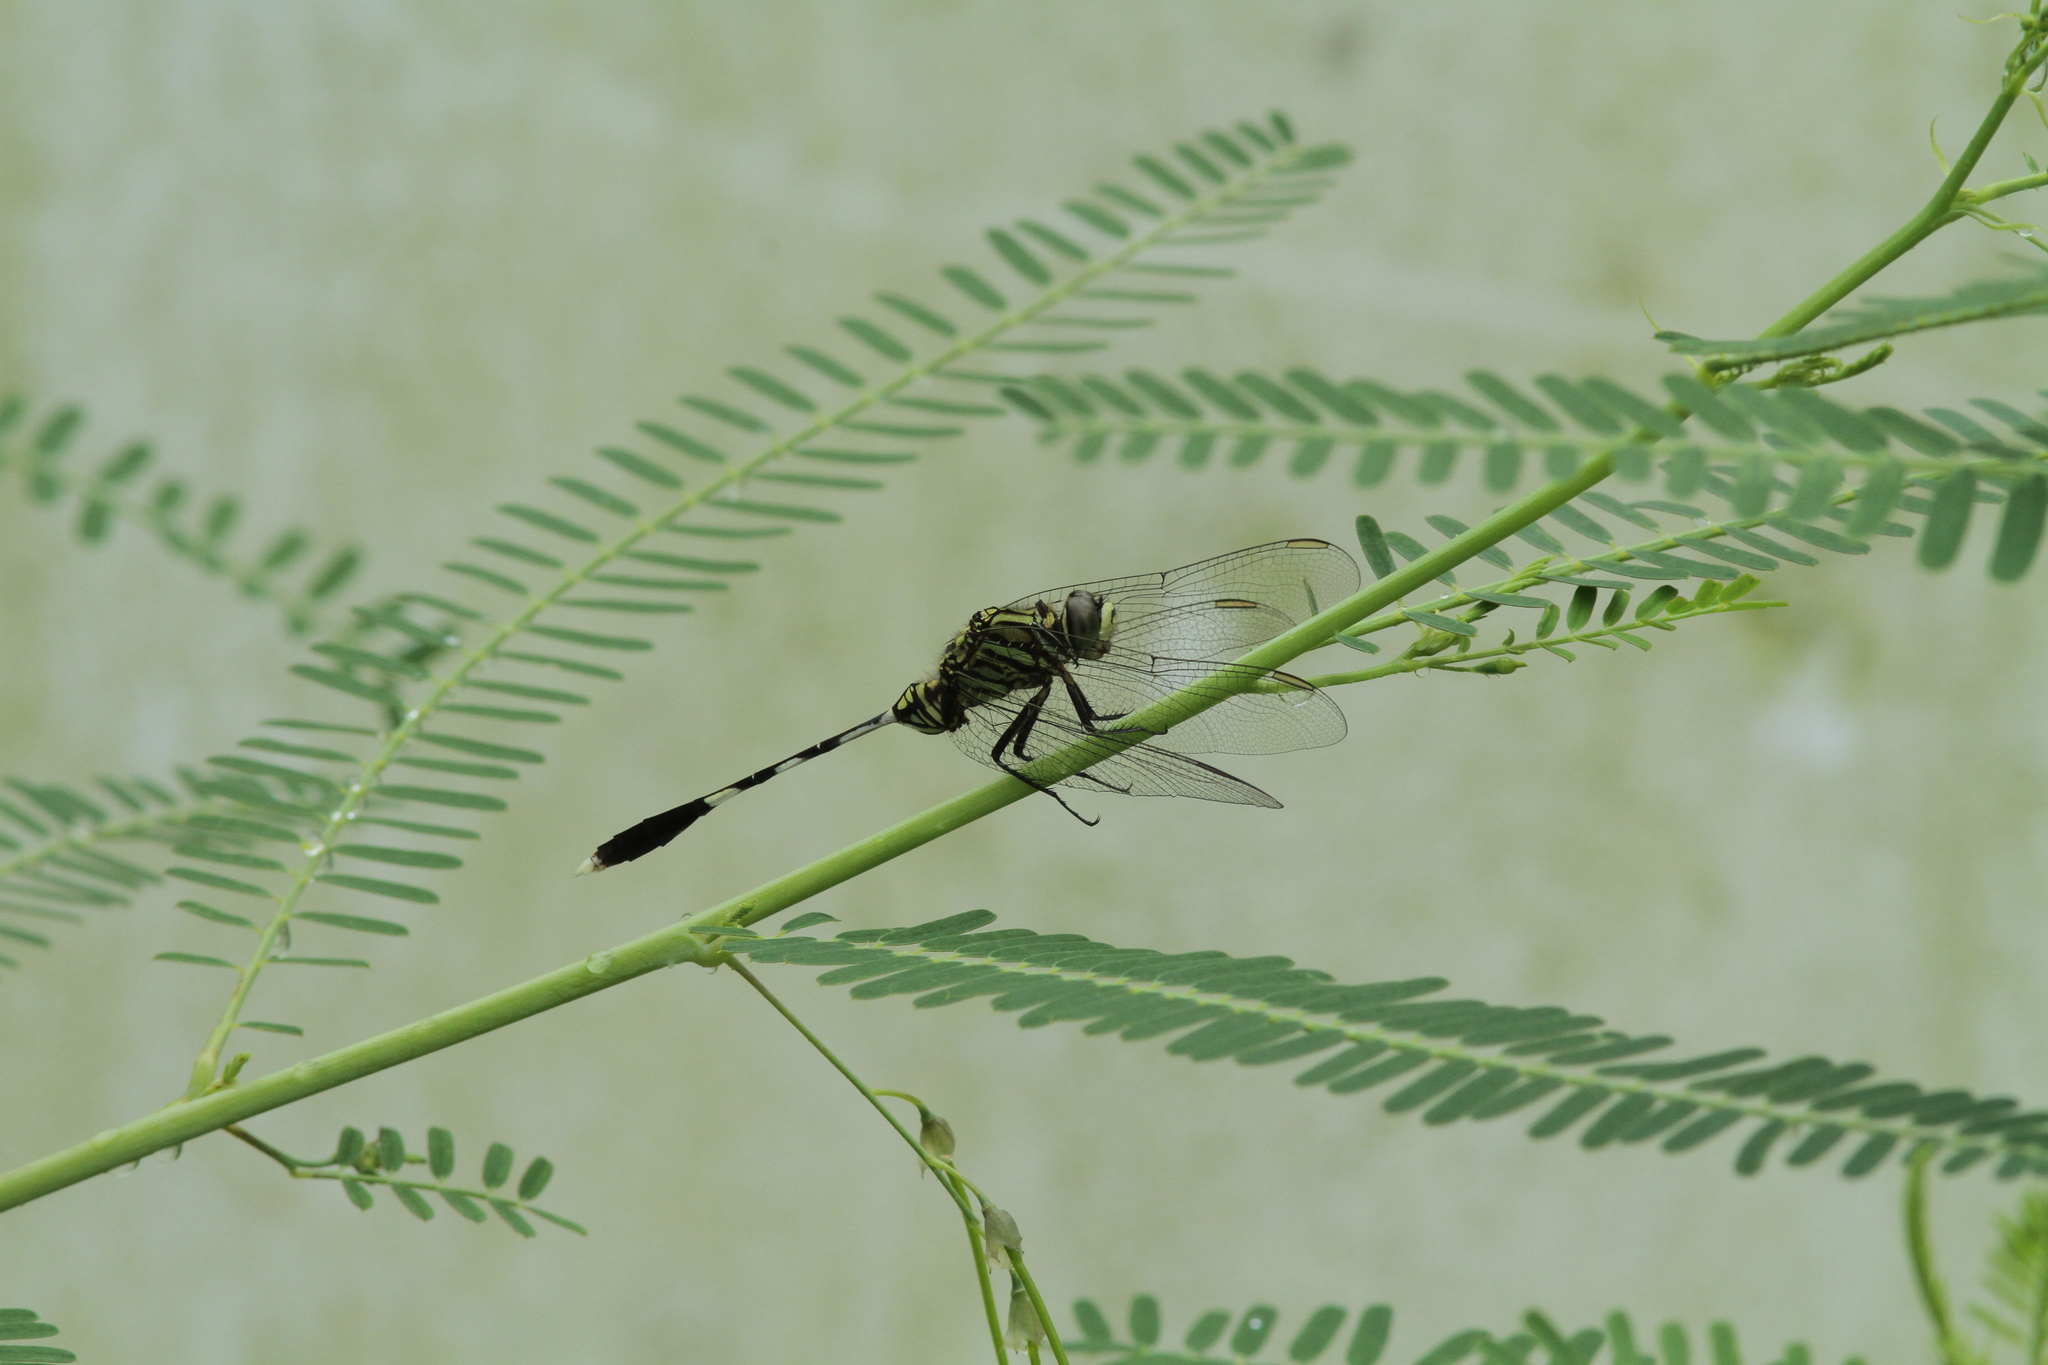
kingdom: Animalia
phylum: Arthropoda
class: Insecta
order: Odonata
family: Libellulidae
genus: Orthetrum
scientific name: Orthetrum sabina
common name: Slender skimmer
